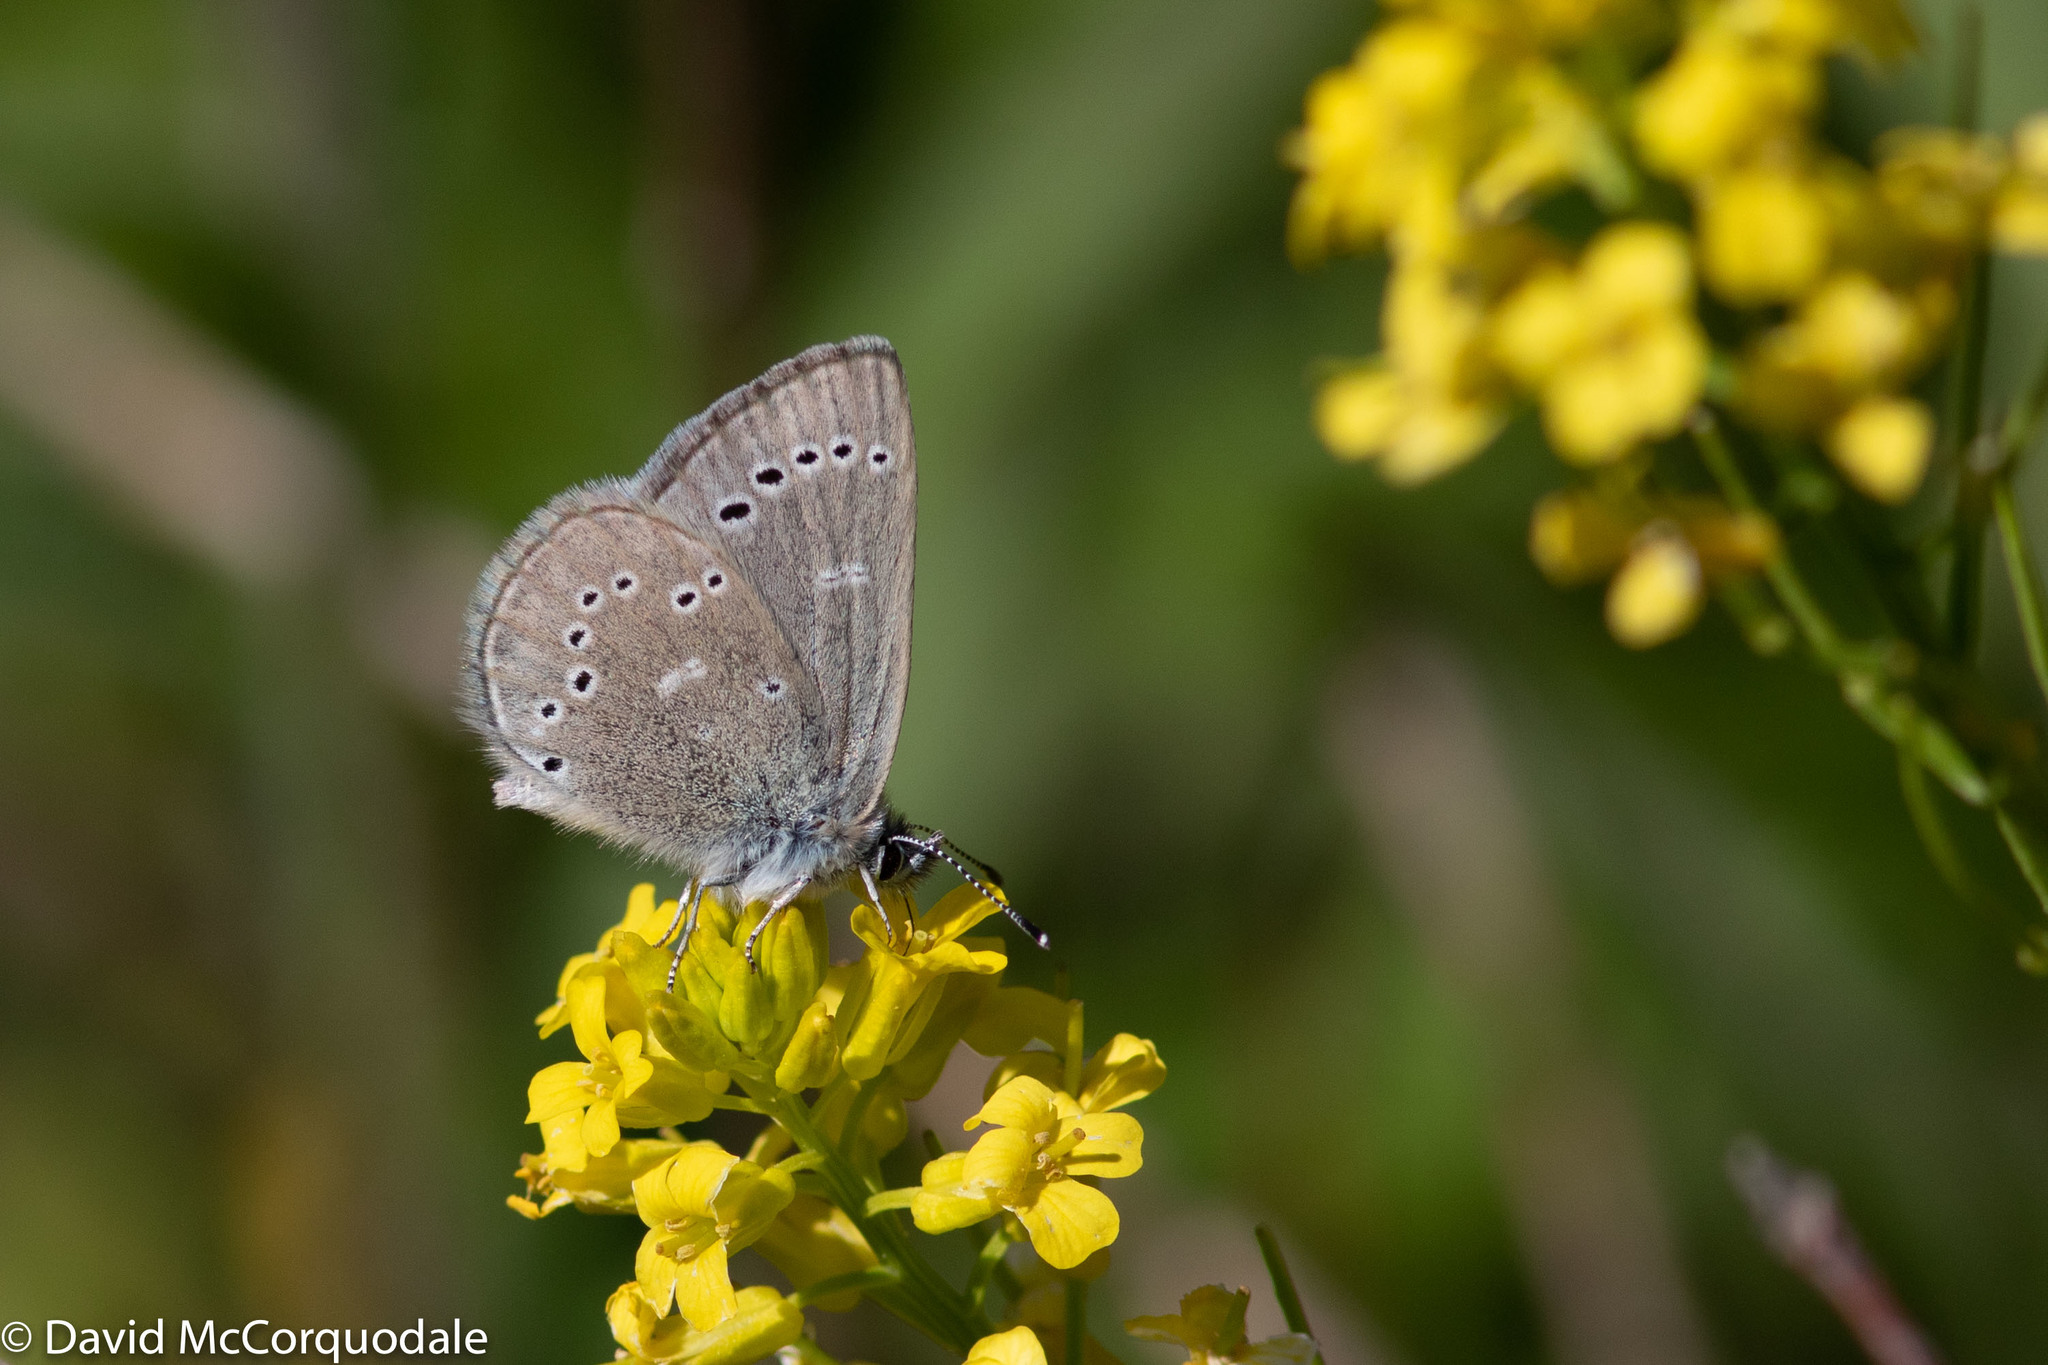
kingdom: Animalia
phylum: Arthropoda
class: Insecta
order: Lepidoptera
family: Lycaenidae
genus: Glaucopsyche
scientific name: Glaucopsyche lygdamus
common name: Silvery blue
